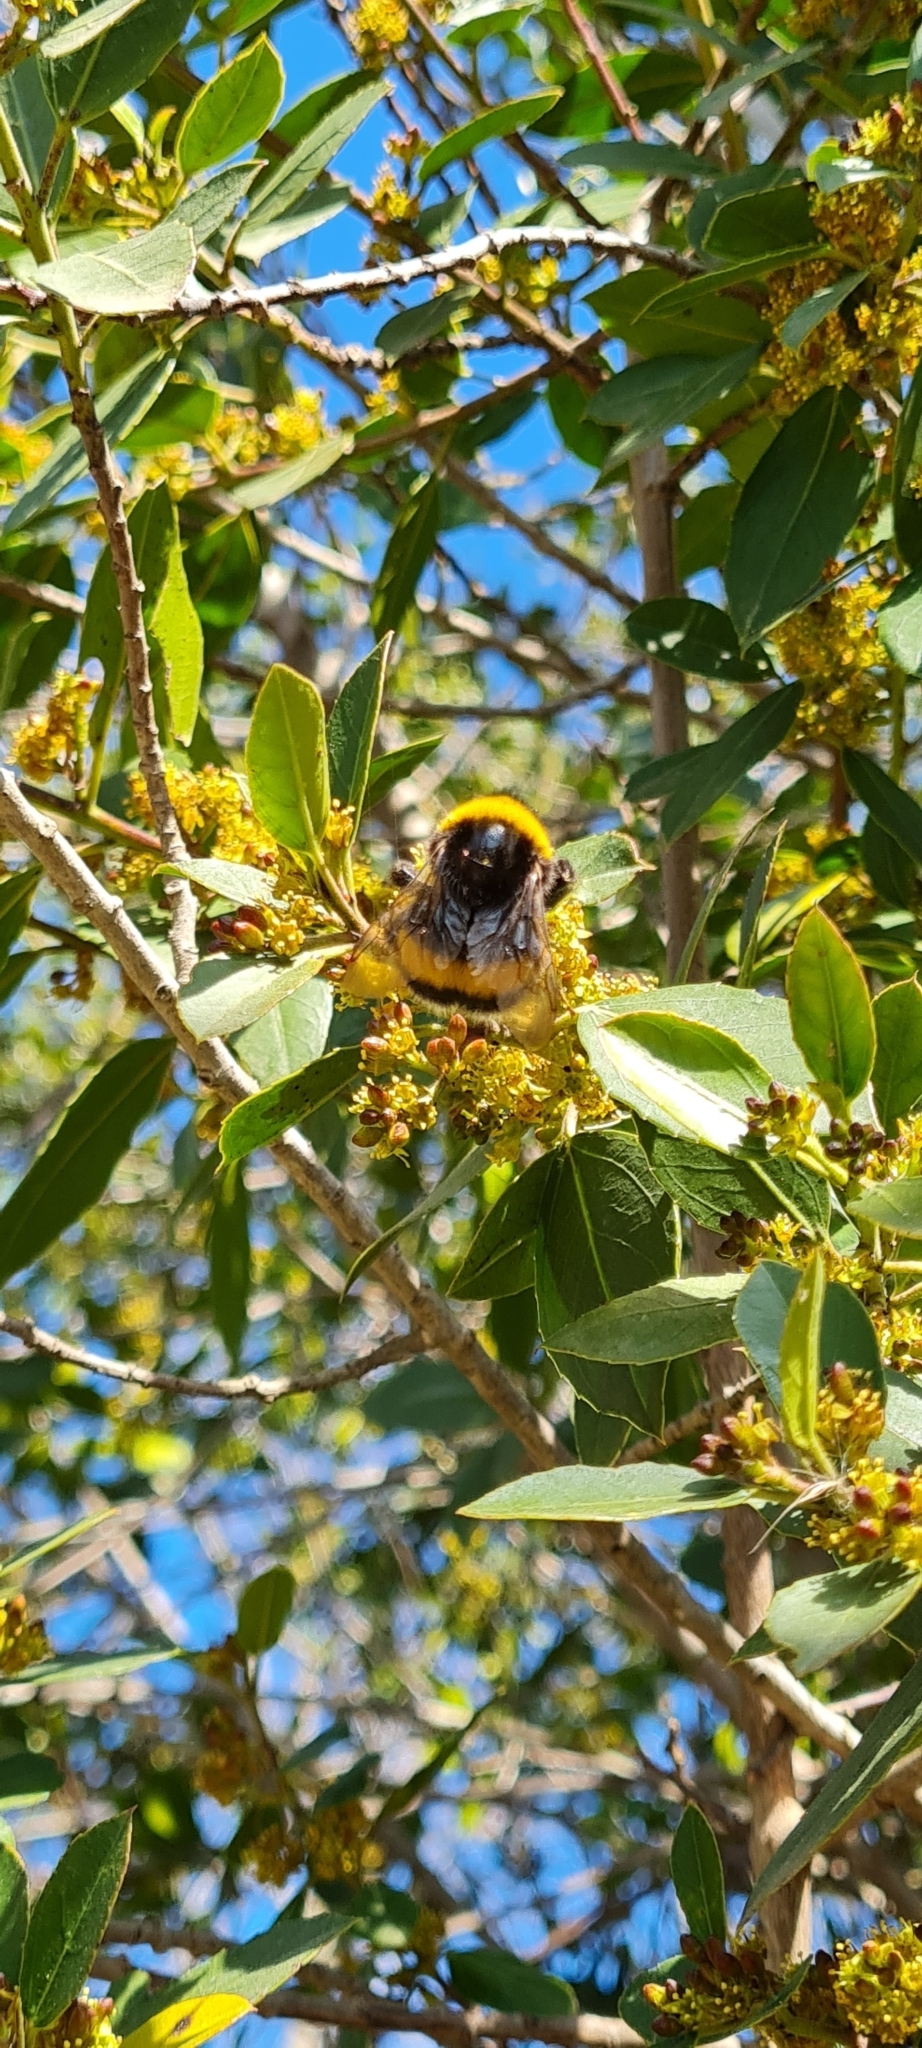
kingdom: Animalia
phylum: Arthropoda
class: Insecta
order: Hymenoptera
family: Apidae
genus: Bombus
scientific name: Bombus terrestris
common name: Buff-tailed bumblebee
